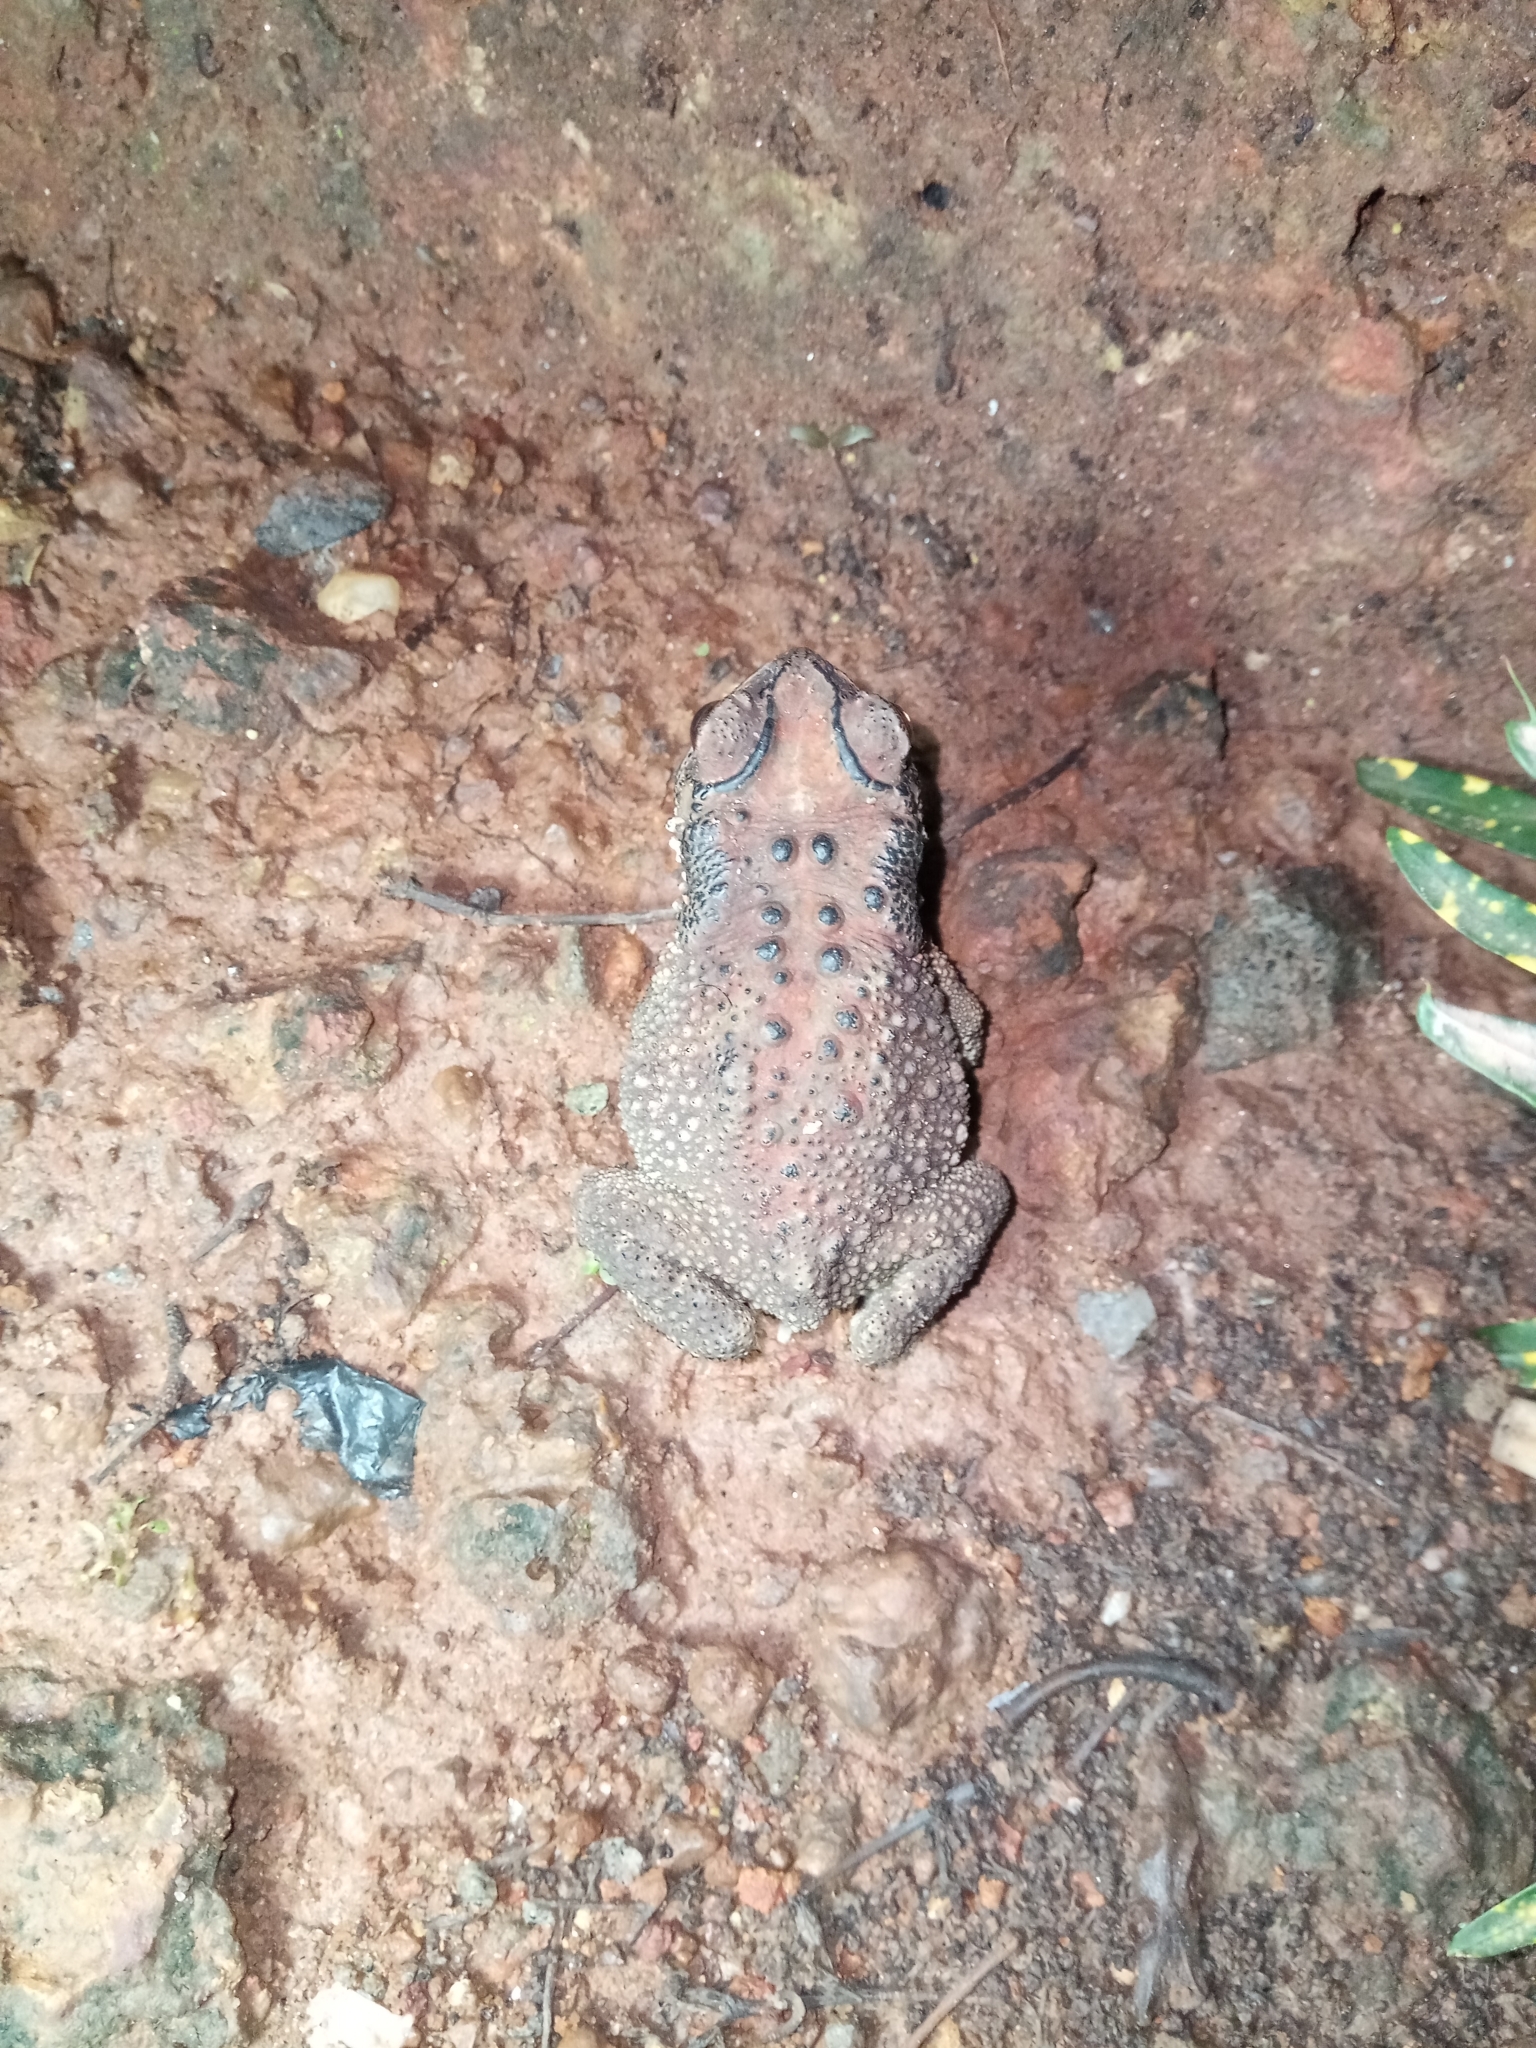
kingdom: Animalia
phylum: Chordata
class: Amphibia
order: Anura
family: Bufonidae
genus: Duttaphrynus
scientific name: Duttaphrynus melanostictus
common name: Common sunda toad
